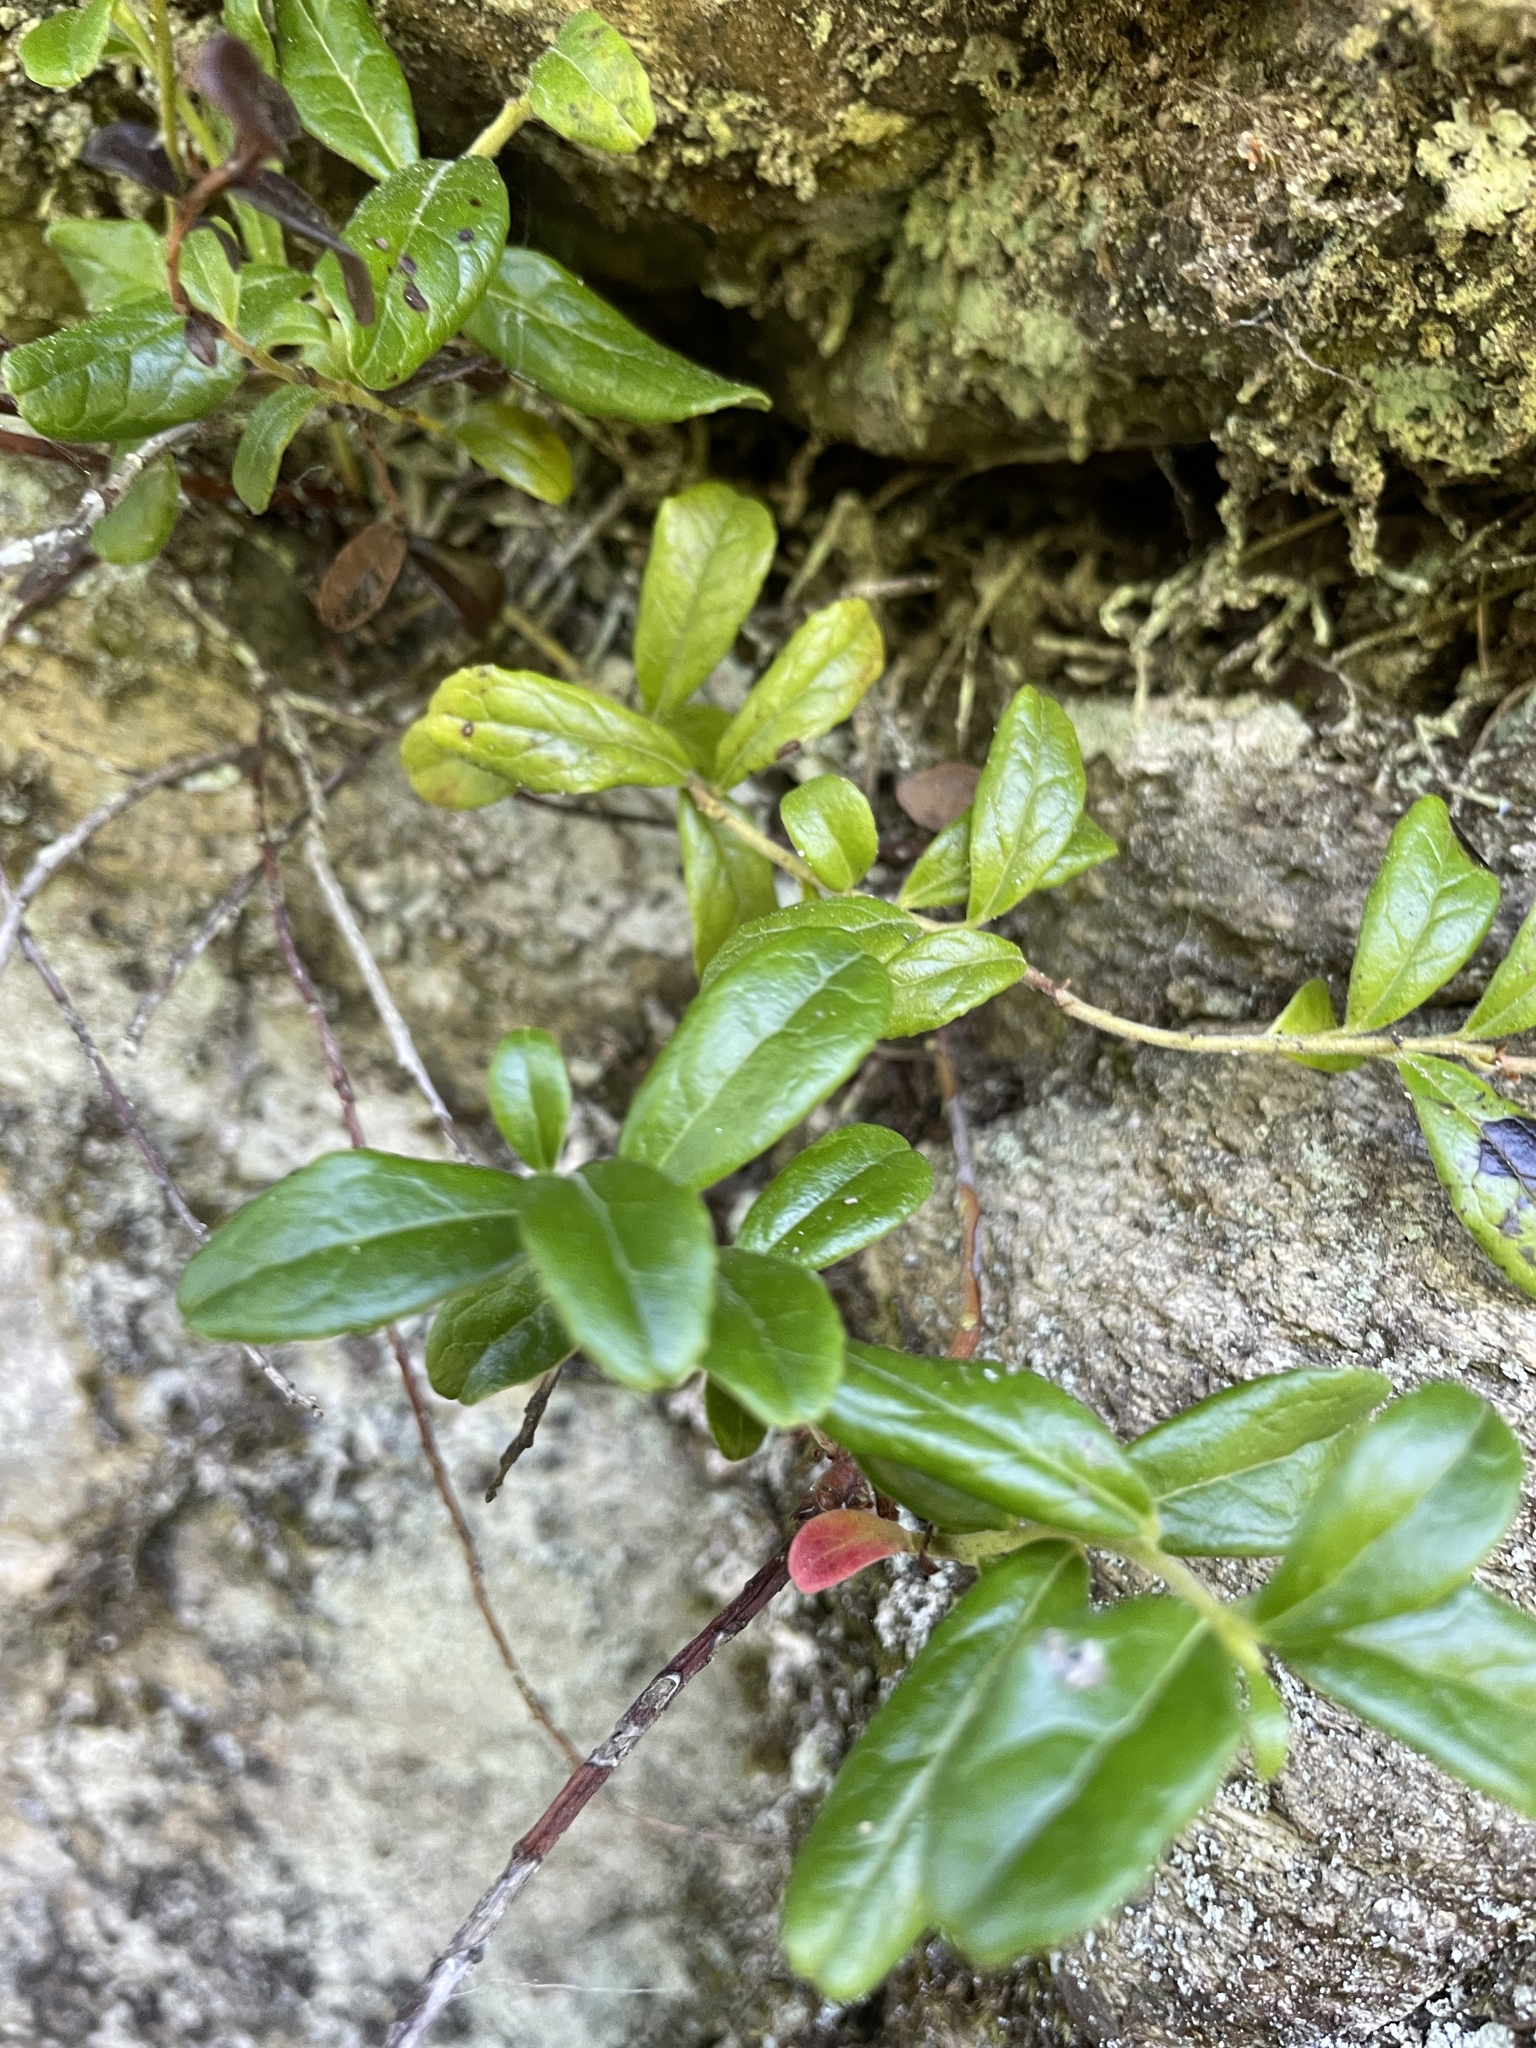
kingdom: Plantae
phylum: Tracheophyta
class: Magnoliopsida
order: Ericales
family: Ericaceae
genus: Vaccinium
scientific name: Vaccinium vitis-idaea
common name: Cowberry
